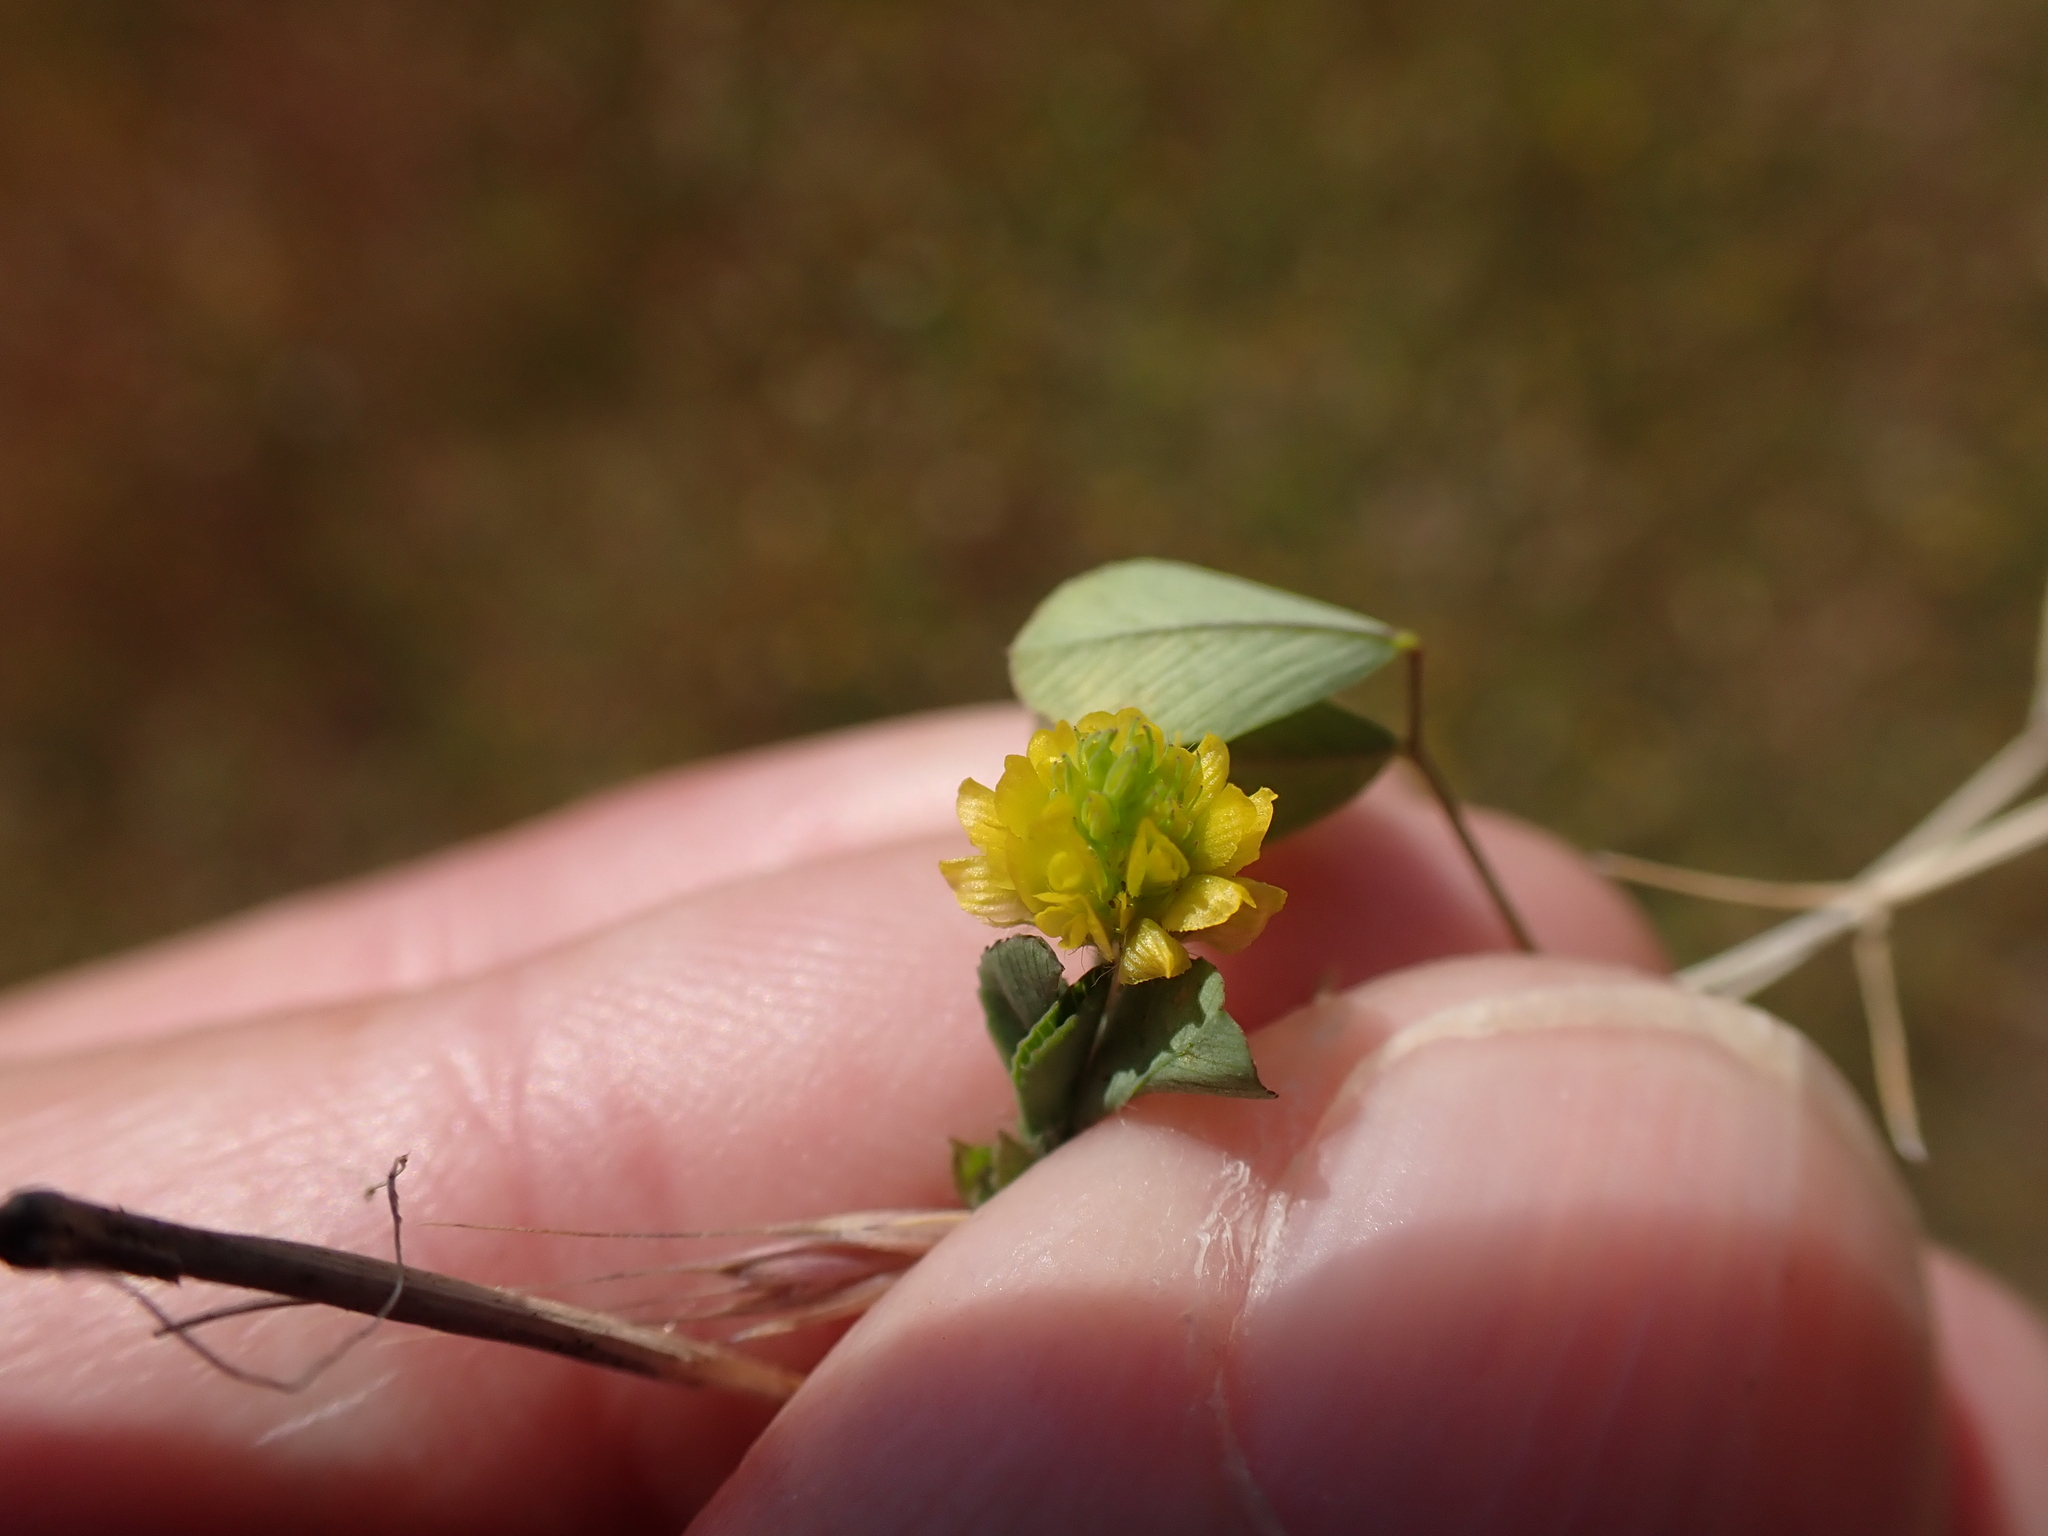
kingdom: Plantae
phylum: Tracheophyta
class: Magnoliopsida
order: Fabales
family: Fabaceae
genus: Trifolium
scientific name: Trifolium campestre
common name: Field clover
